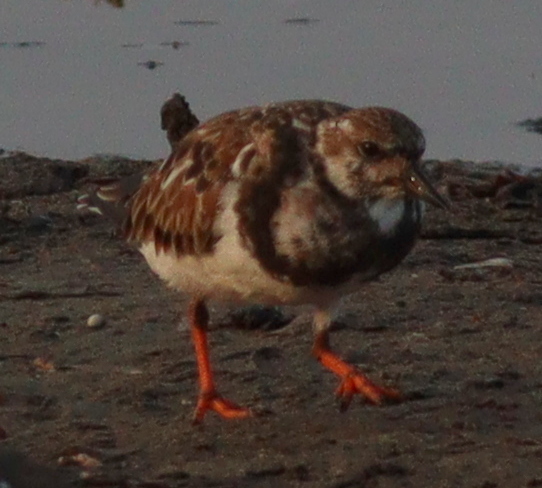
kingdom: Animalia
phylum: Chordata
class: Aves
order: Charadriiformes
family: Scolopacidae
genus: Arenaria
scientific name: Arenaria interpres
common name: Ruddy turnstone
